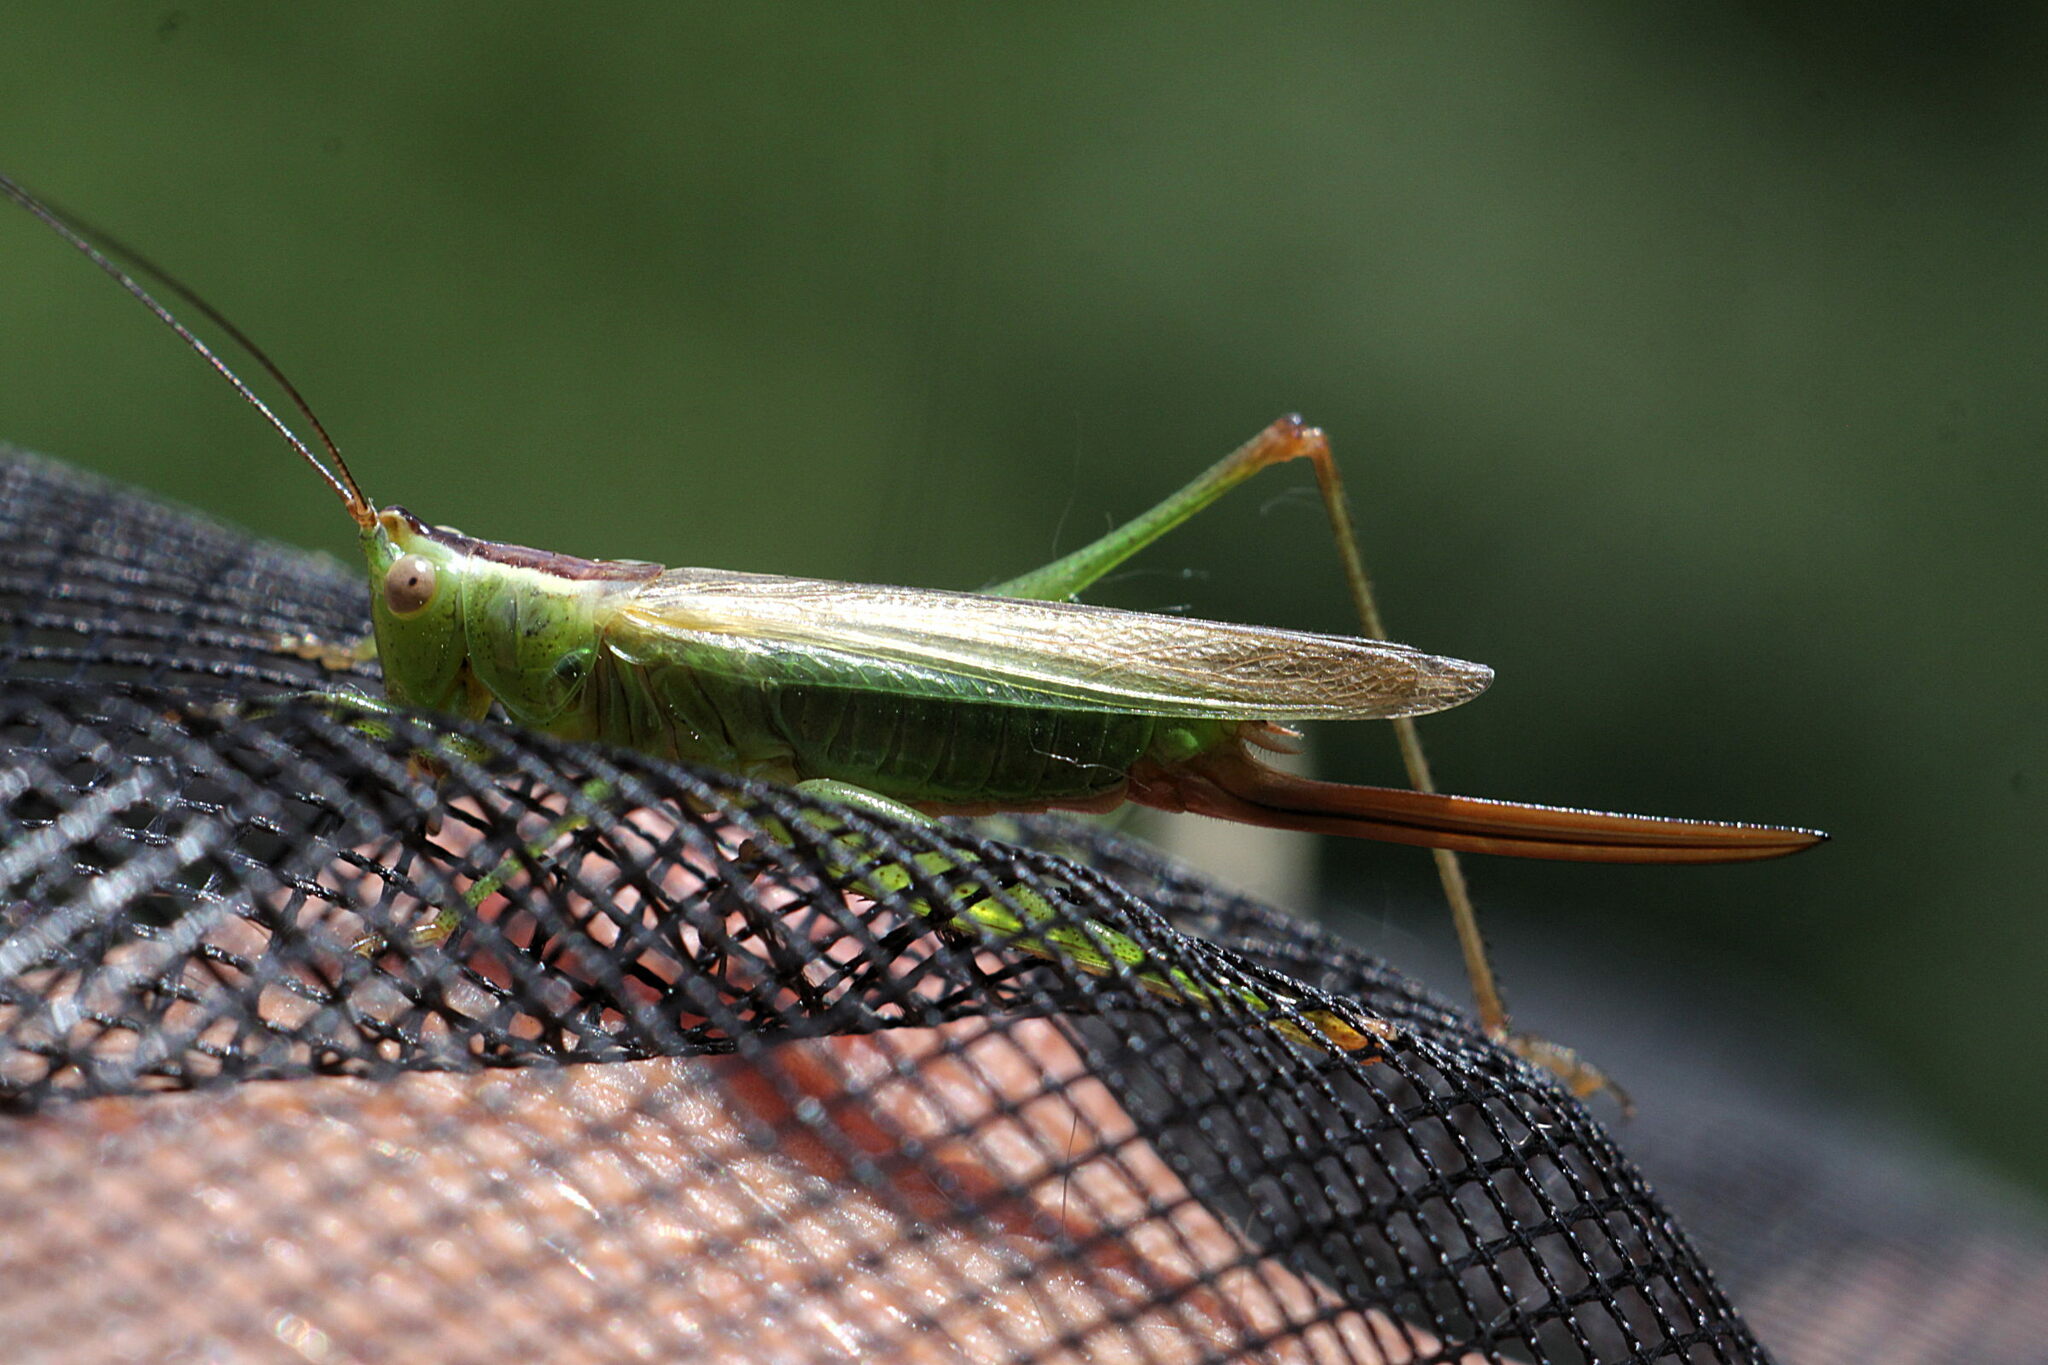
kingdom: Animalia
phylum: Arthropoda
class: Insecta
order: Orthoptera
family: Tettigoniidae
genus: Conocephalus
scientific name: Conocephalus fuscus
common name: Long-winged conehead
